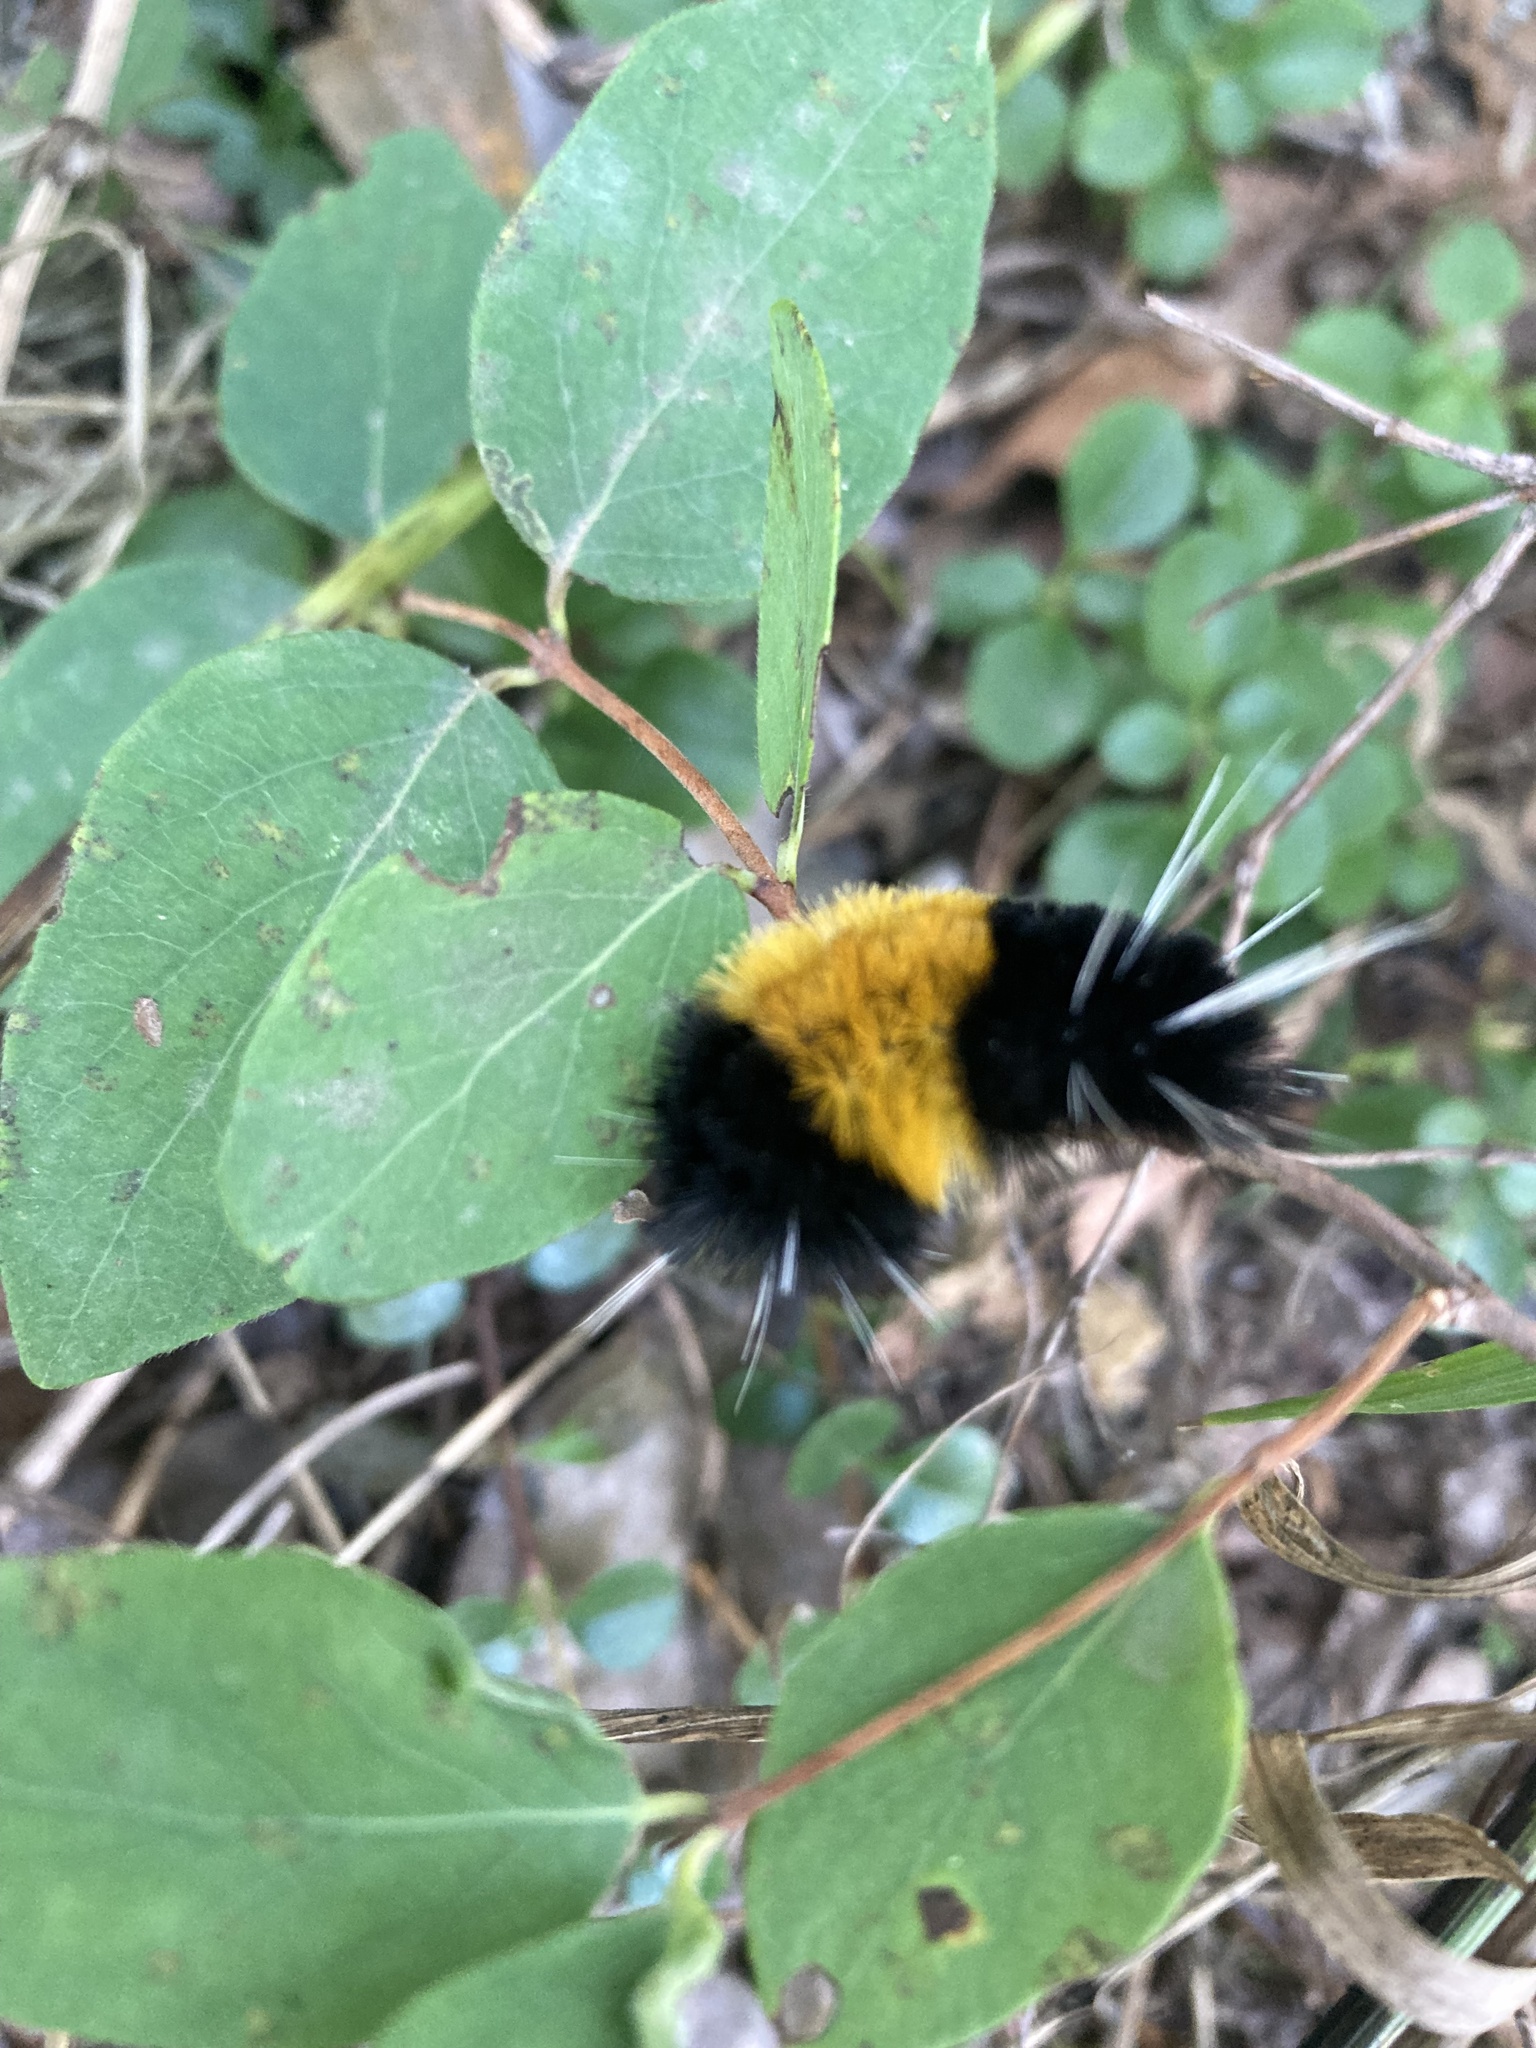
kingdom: Animalia
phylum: Arthropoda
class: Insecta
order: Lepidoptera
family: Erebidae
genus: Lophocampa
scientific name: Lophocampa maculata
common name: Spotted tussock moth
